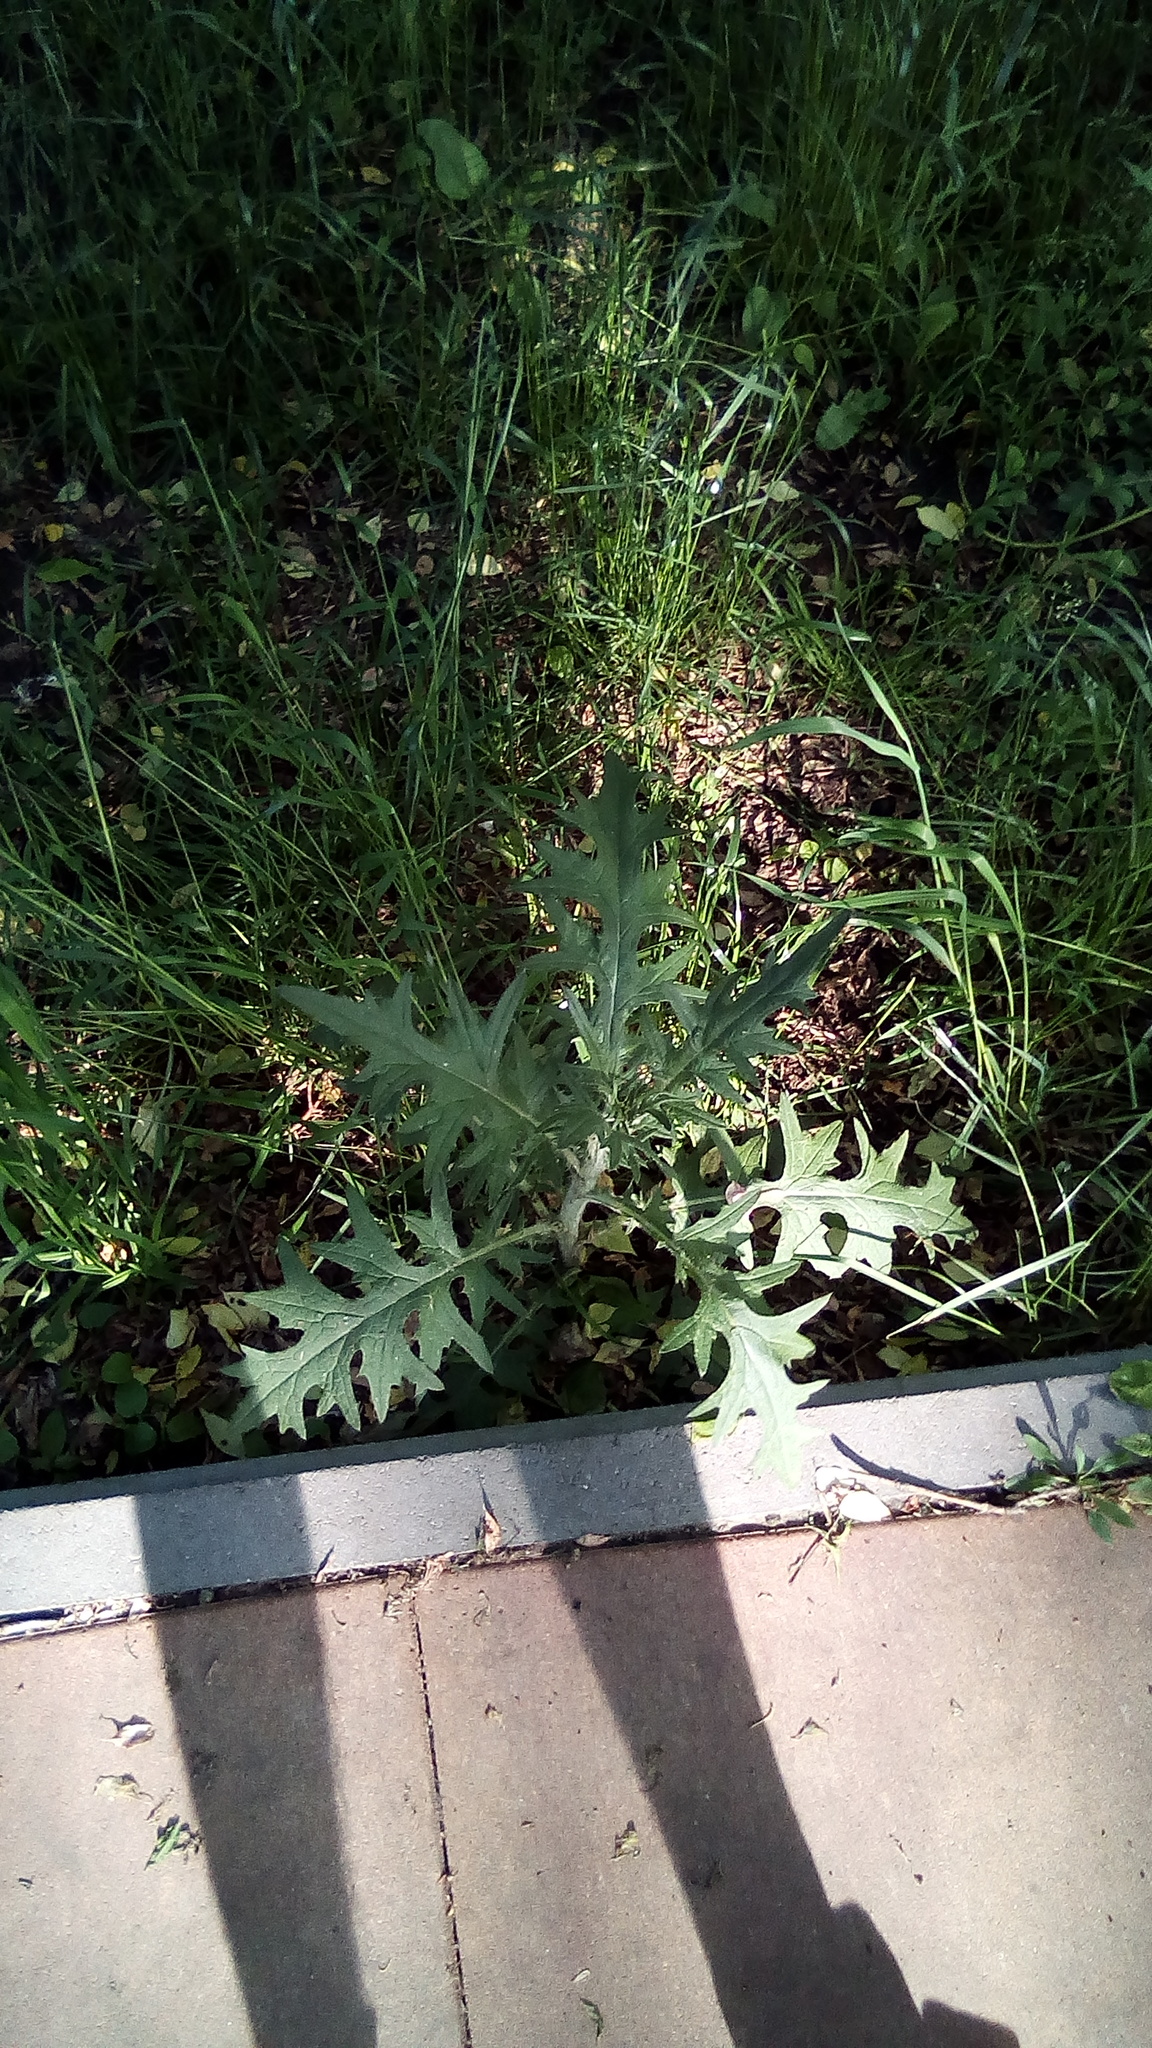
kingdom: Plantae
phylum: Tracheophyta
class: Magnoliopsida
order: Asterales
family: Asteraceae
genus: Cirsium
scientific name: Cirsium vulgare
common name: Bull thistle
